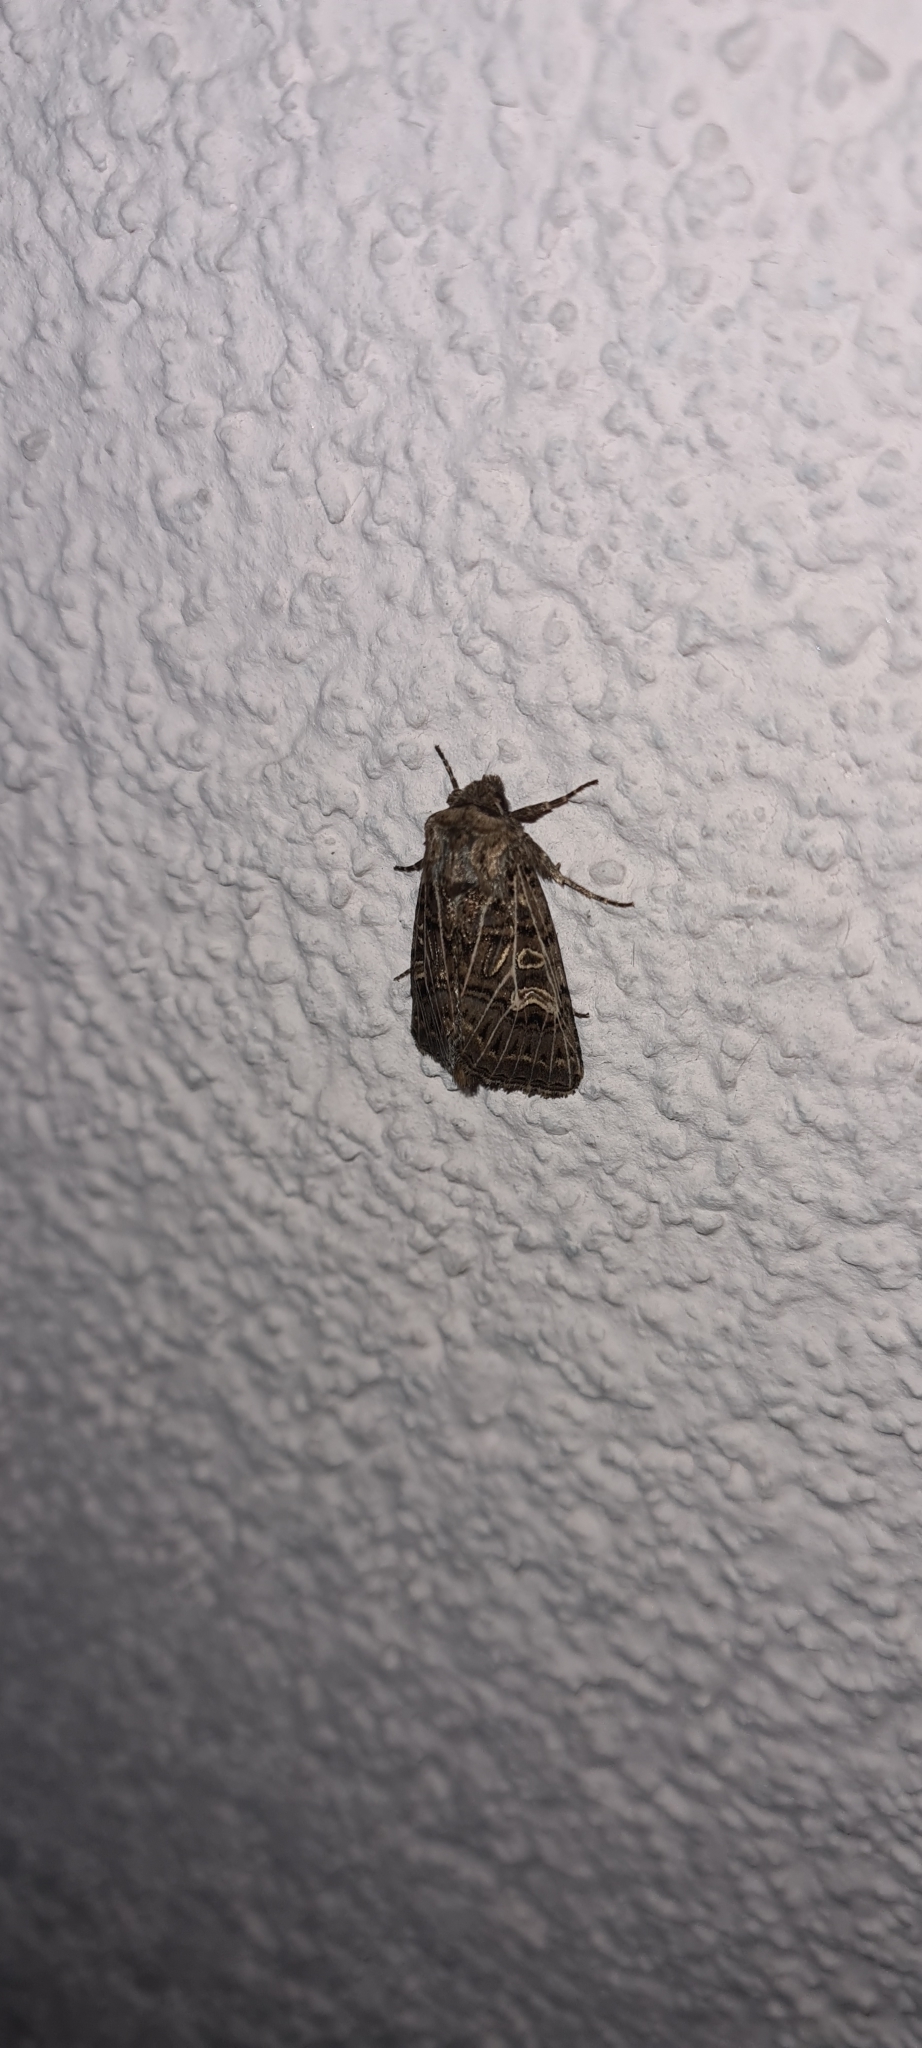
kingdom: Animalia
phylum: Arthropoda
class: Insecta
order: Lepidoptera
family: Noctuidae
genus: Tholera
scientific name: Tholera decimalis
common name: Feathered gothic
